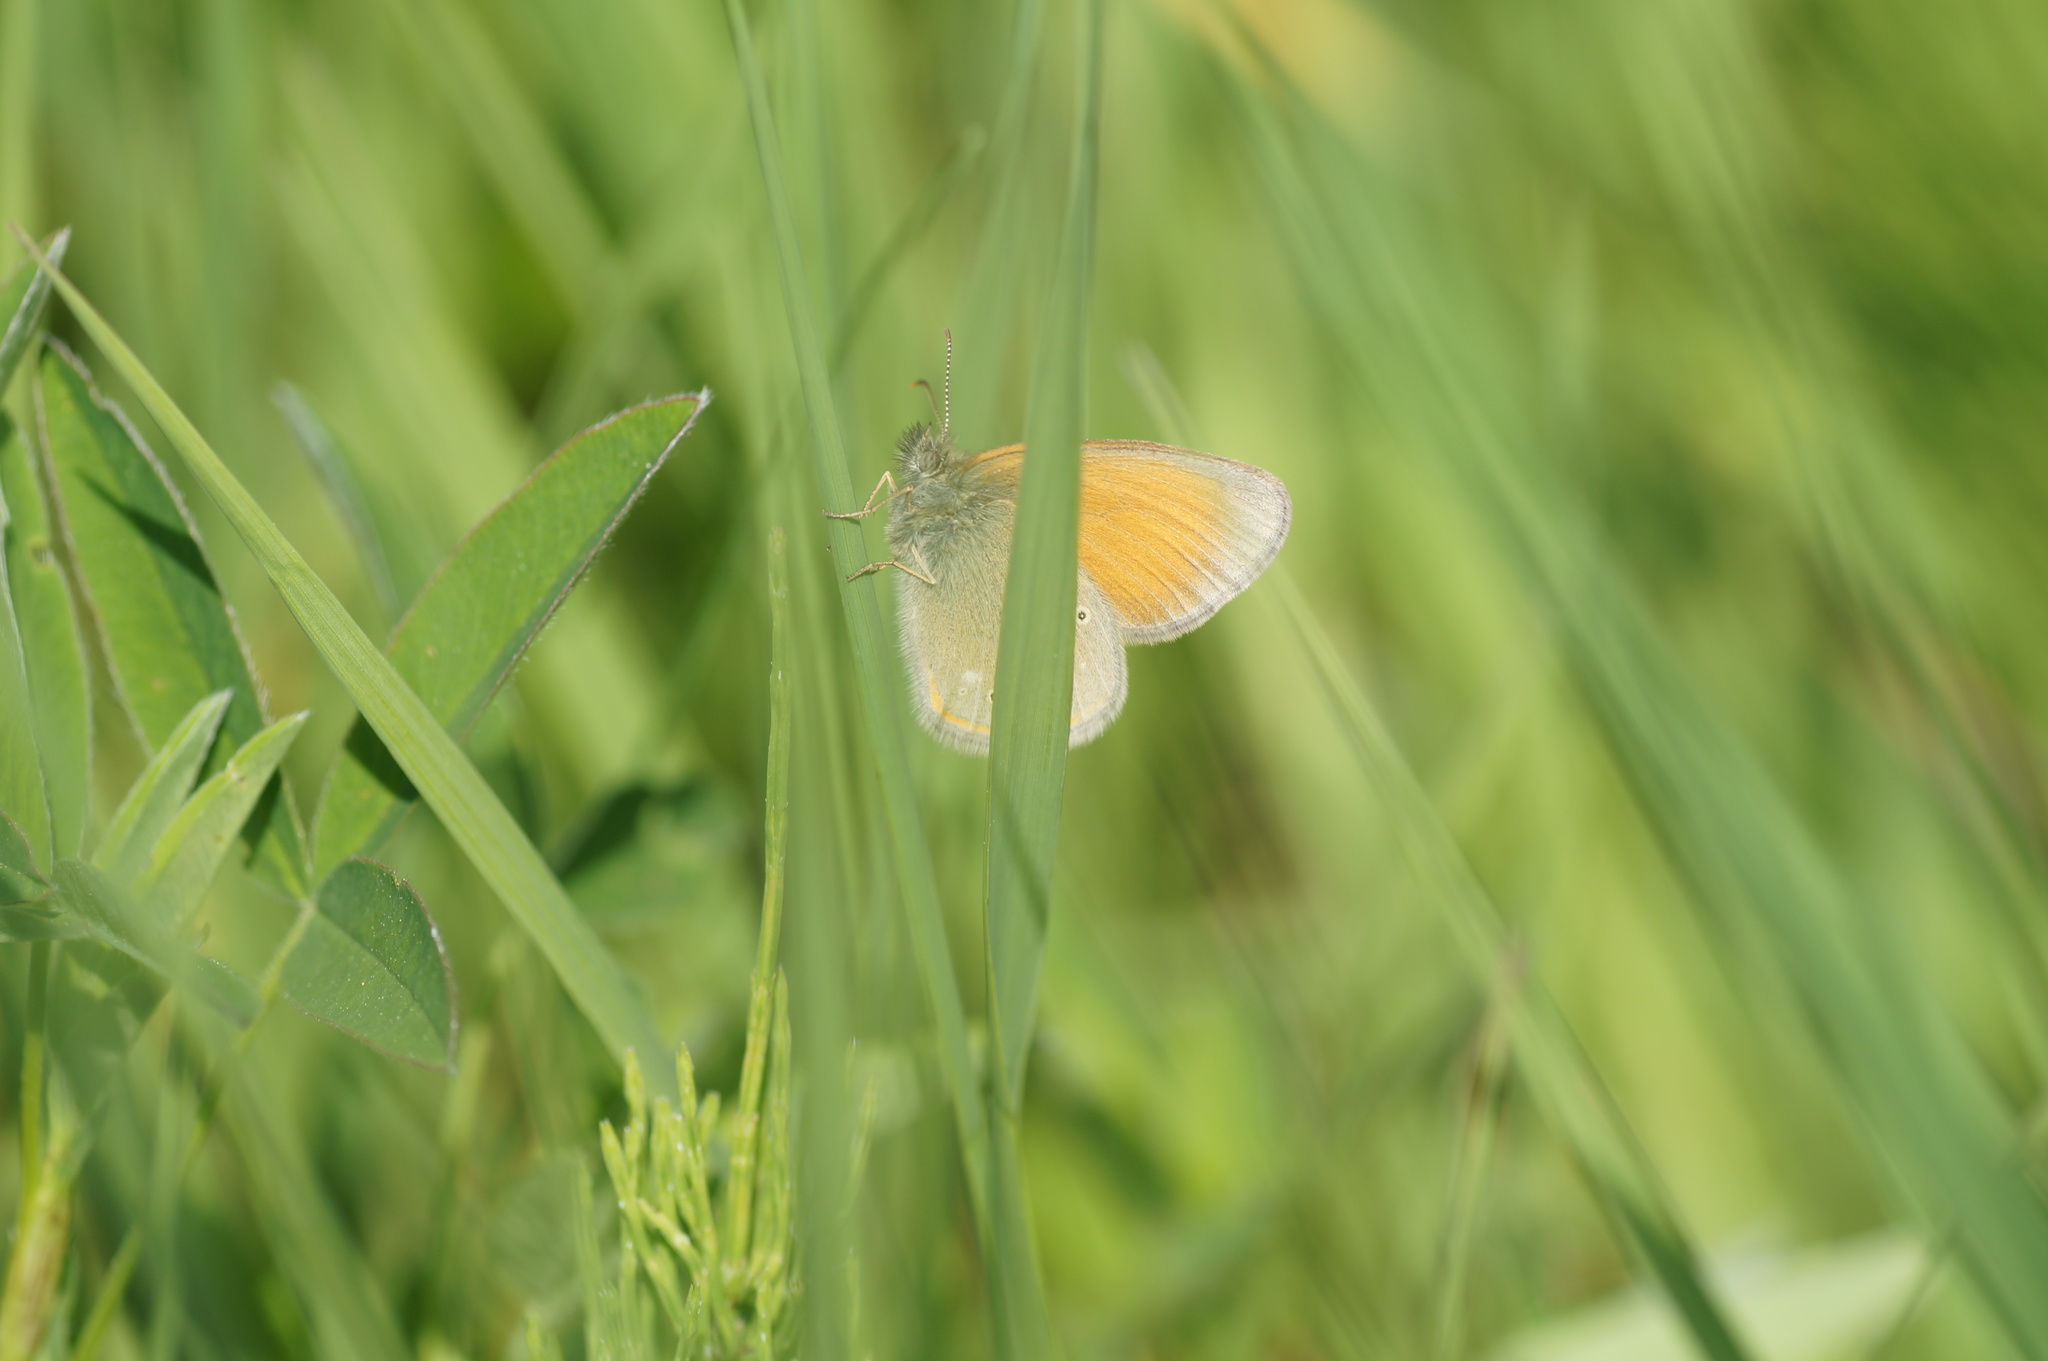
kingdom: Animalia
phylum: Arthropoda
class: Insecta
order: Lepidoptera
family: Nymphalidae
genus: Coenonympha
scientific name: Coenonympha iphis
